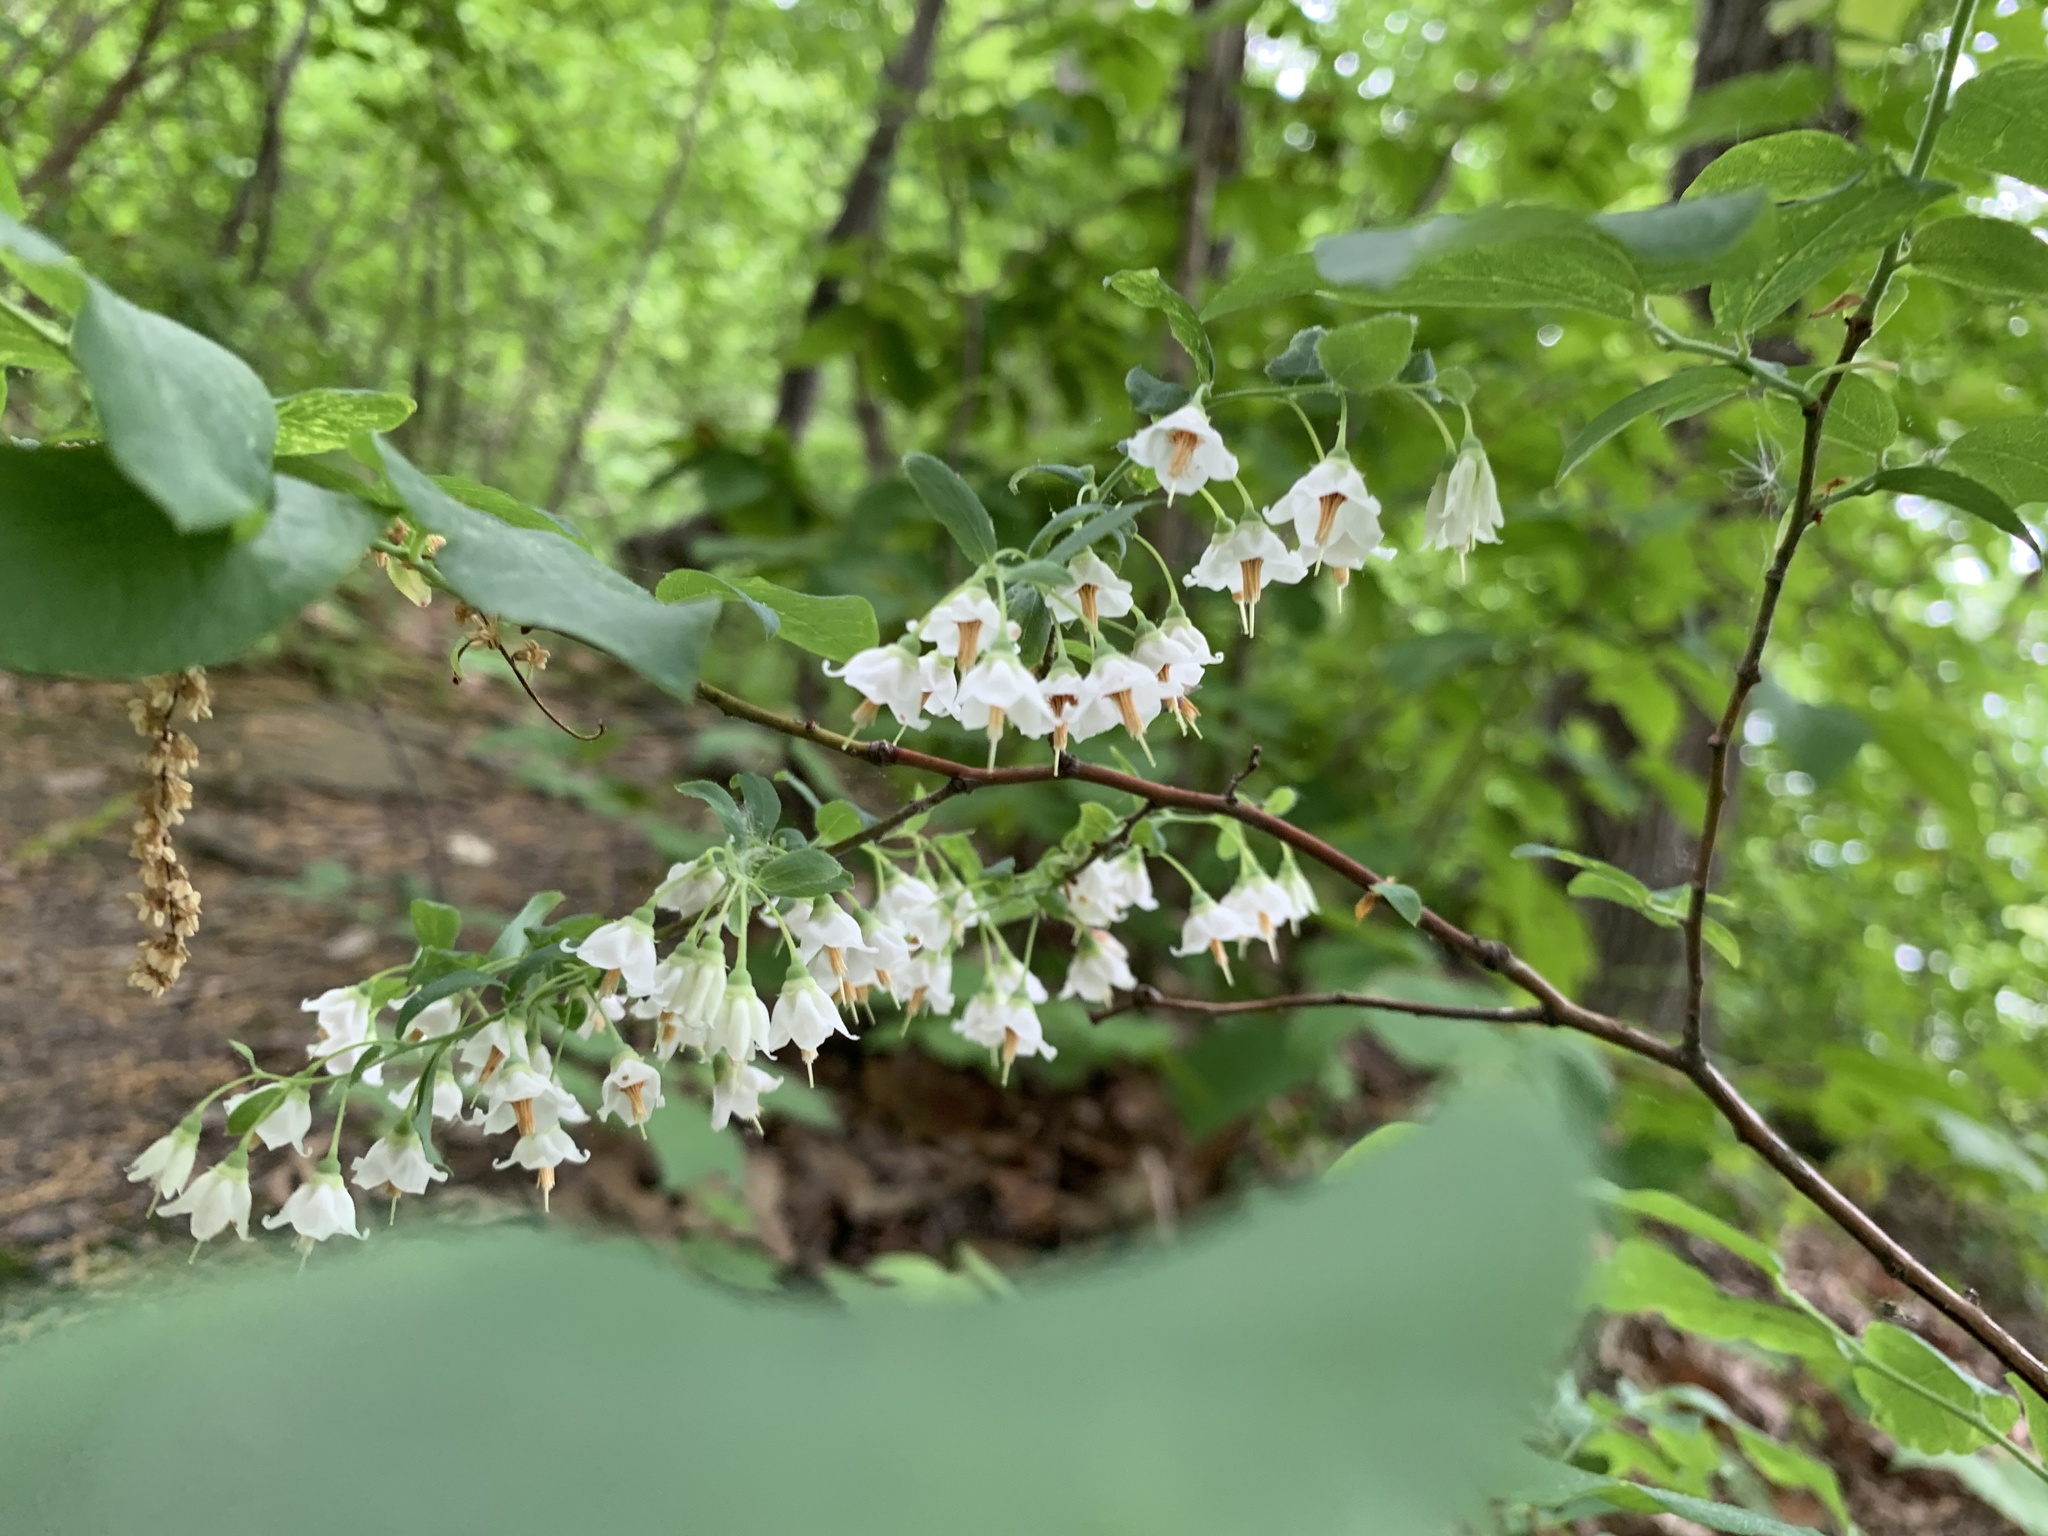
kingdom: Plantae
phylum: Tracheophyta
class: Magnoliopsida
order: Ericales
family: Ericaceae
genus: Vaccinium
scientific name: Vaccinium stamineum
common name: Deerberry
